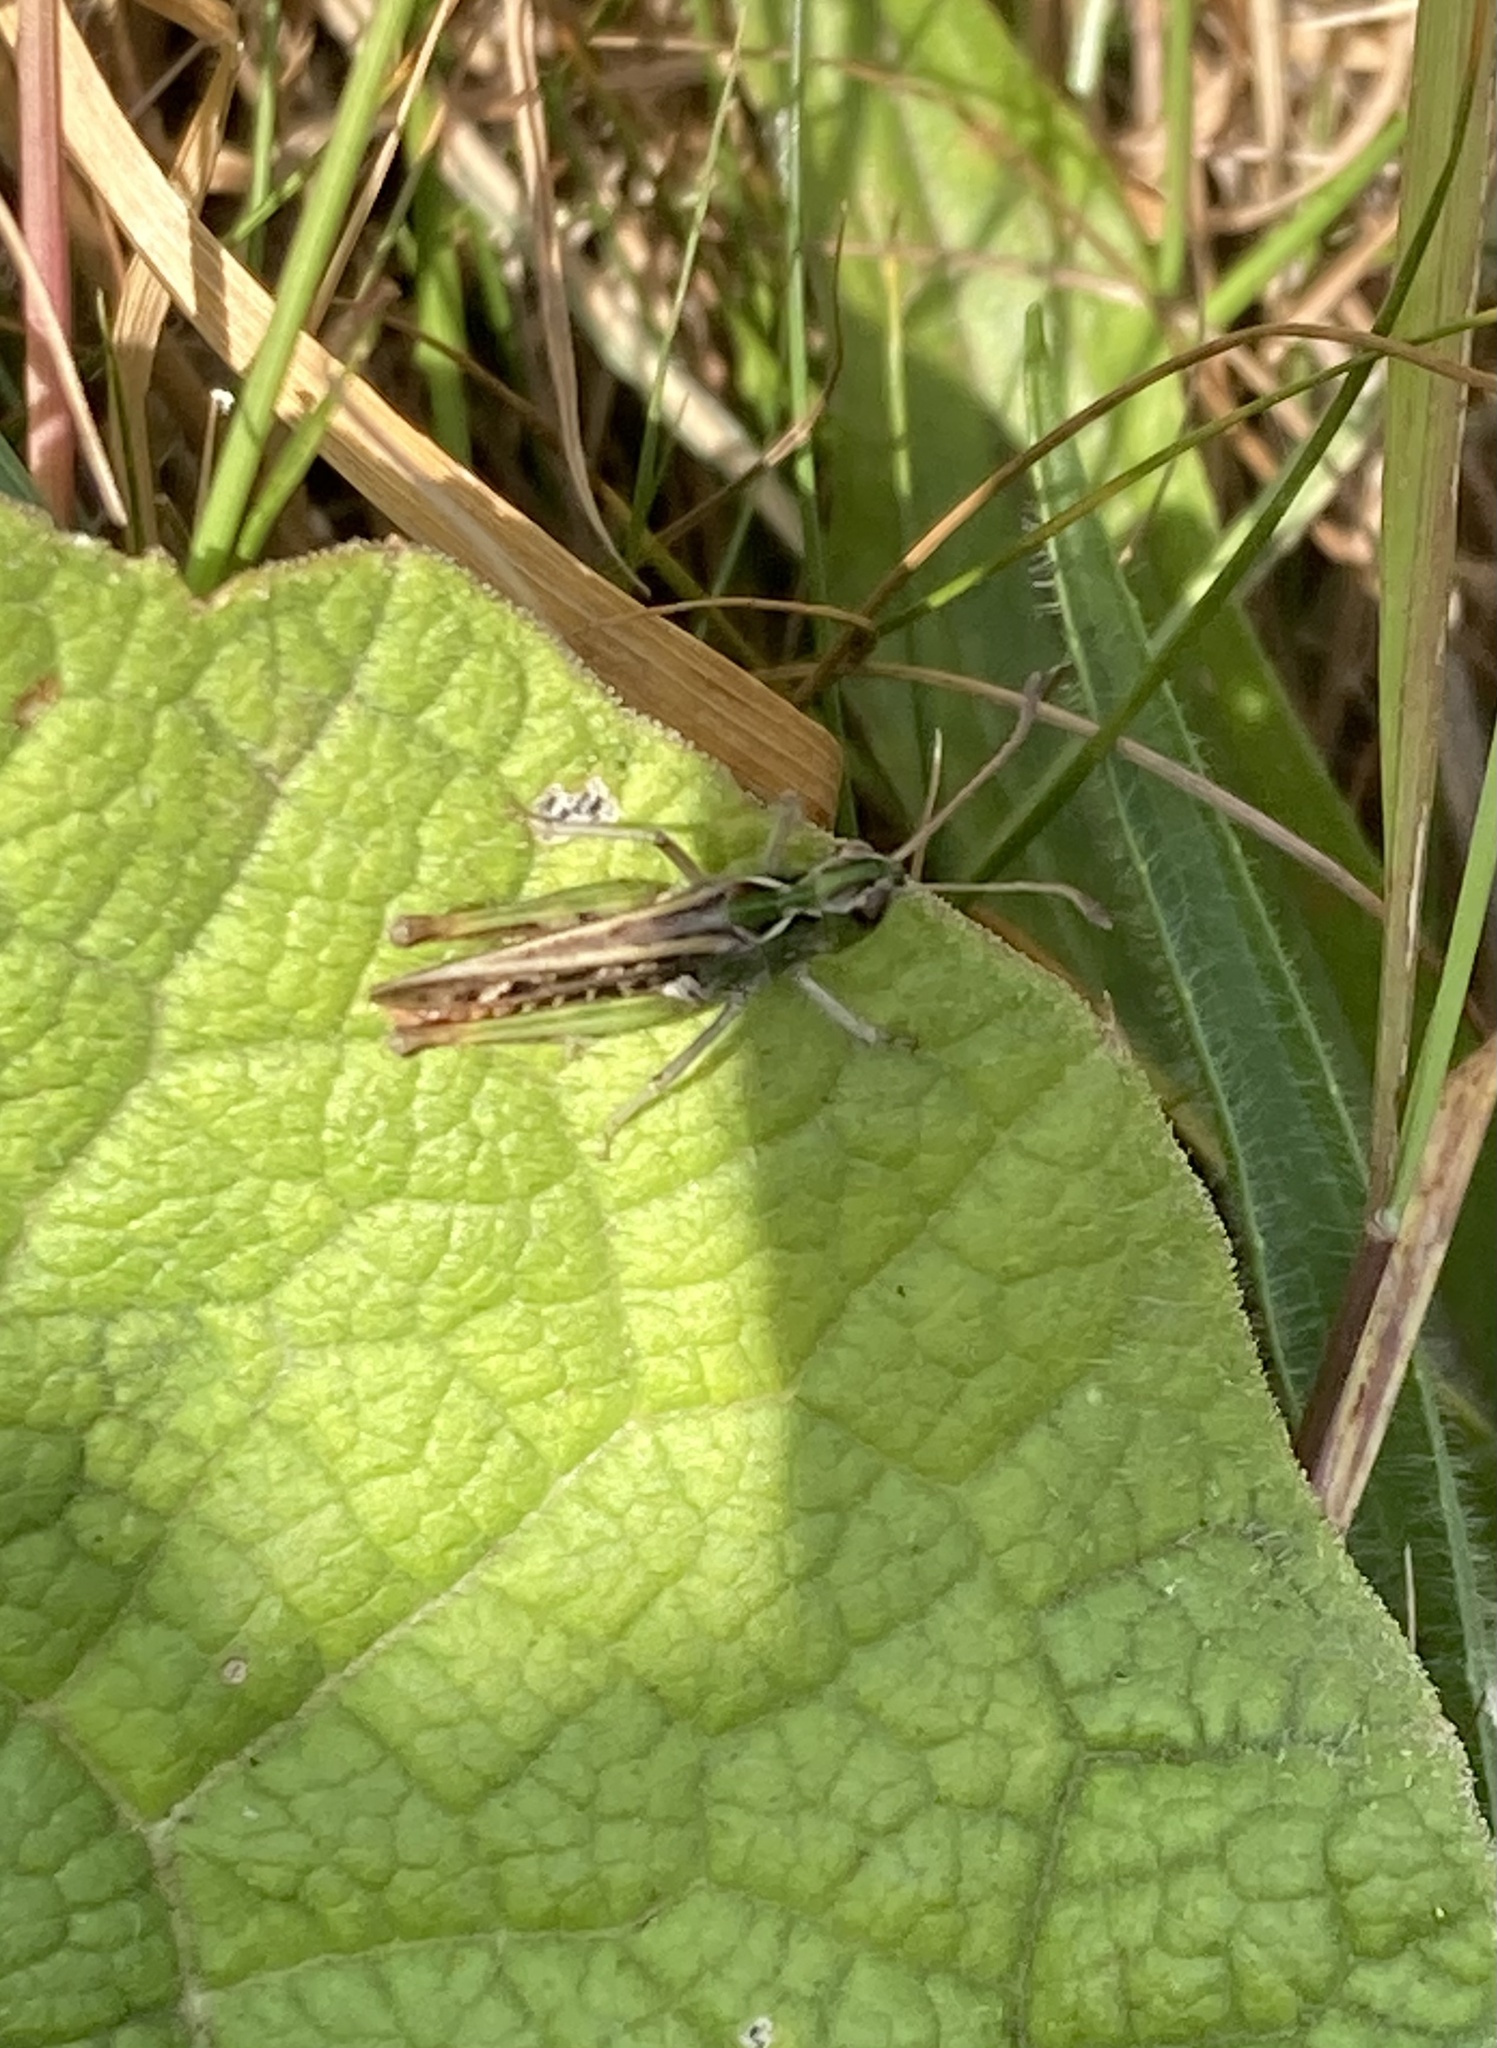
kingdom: Animalia
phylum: Arthropoda
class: Insecta
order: Orthoptera
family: Acrididae
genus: Myrmeleotettix
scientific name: Myrmeleotettix maculatus
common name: Mottled grasshopper
